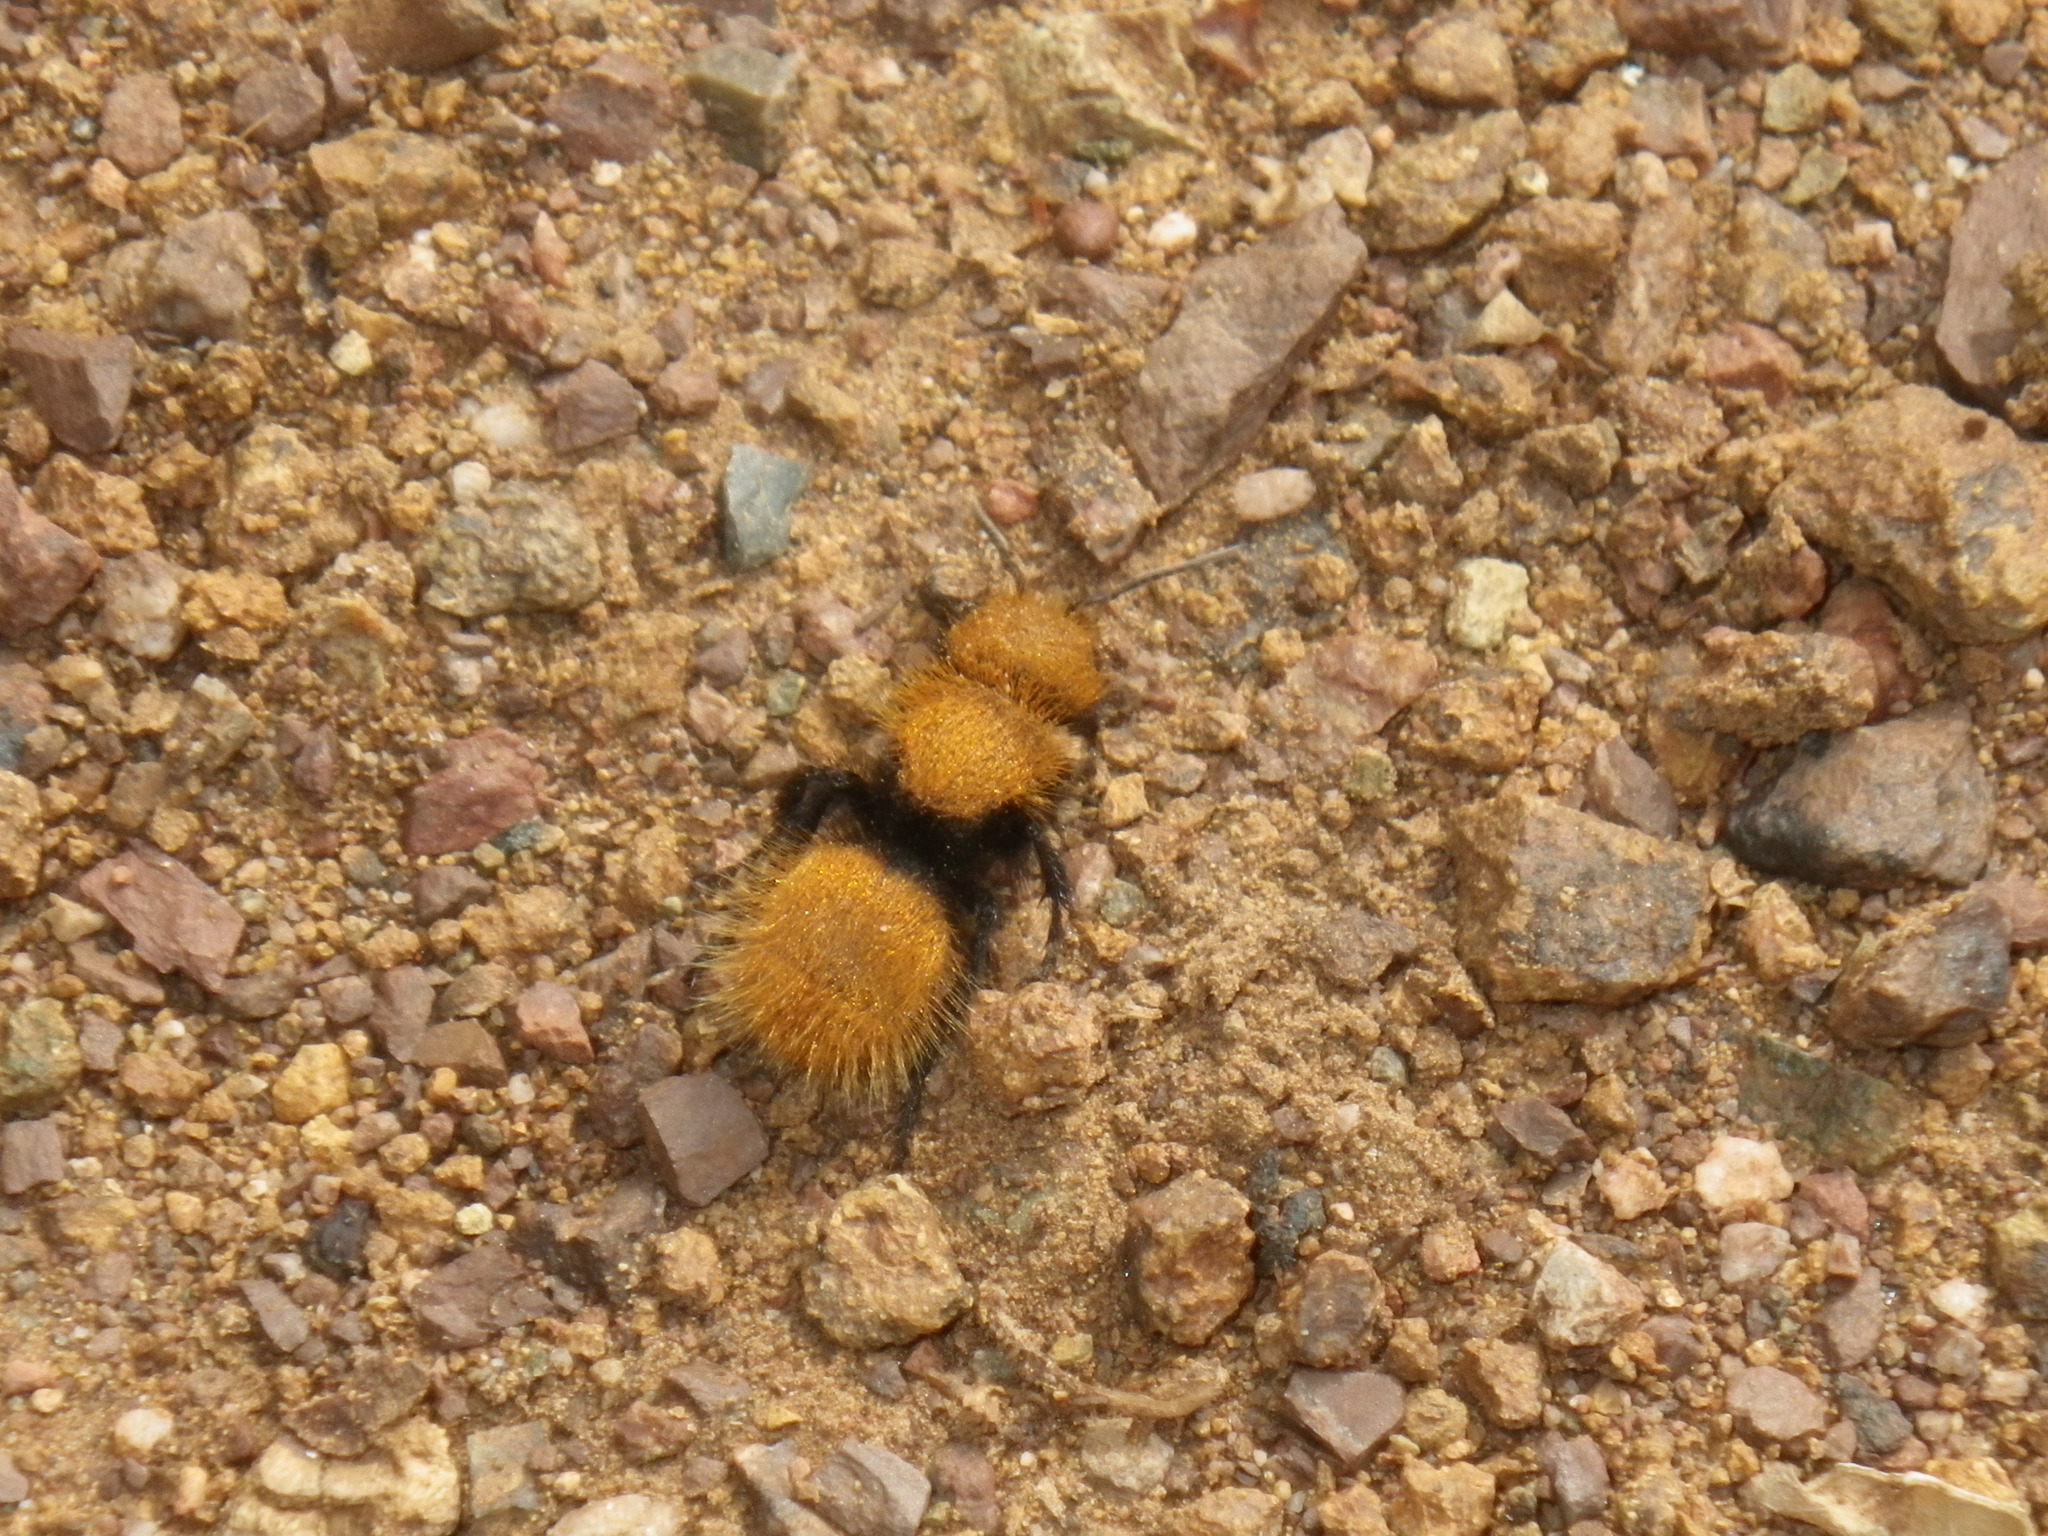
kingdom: Animalia
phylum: Arthropoda
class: Insecta
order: Hymenoptera
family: Mutillidae
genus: Dasymutilla
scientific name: Dasymutilla
